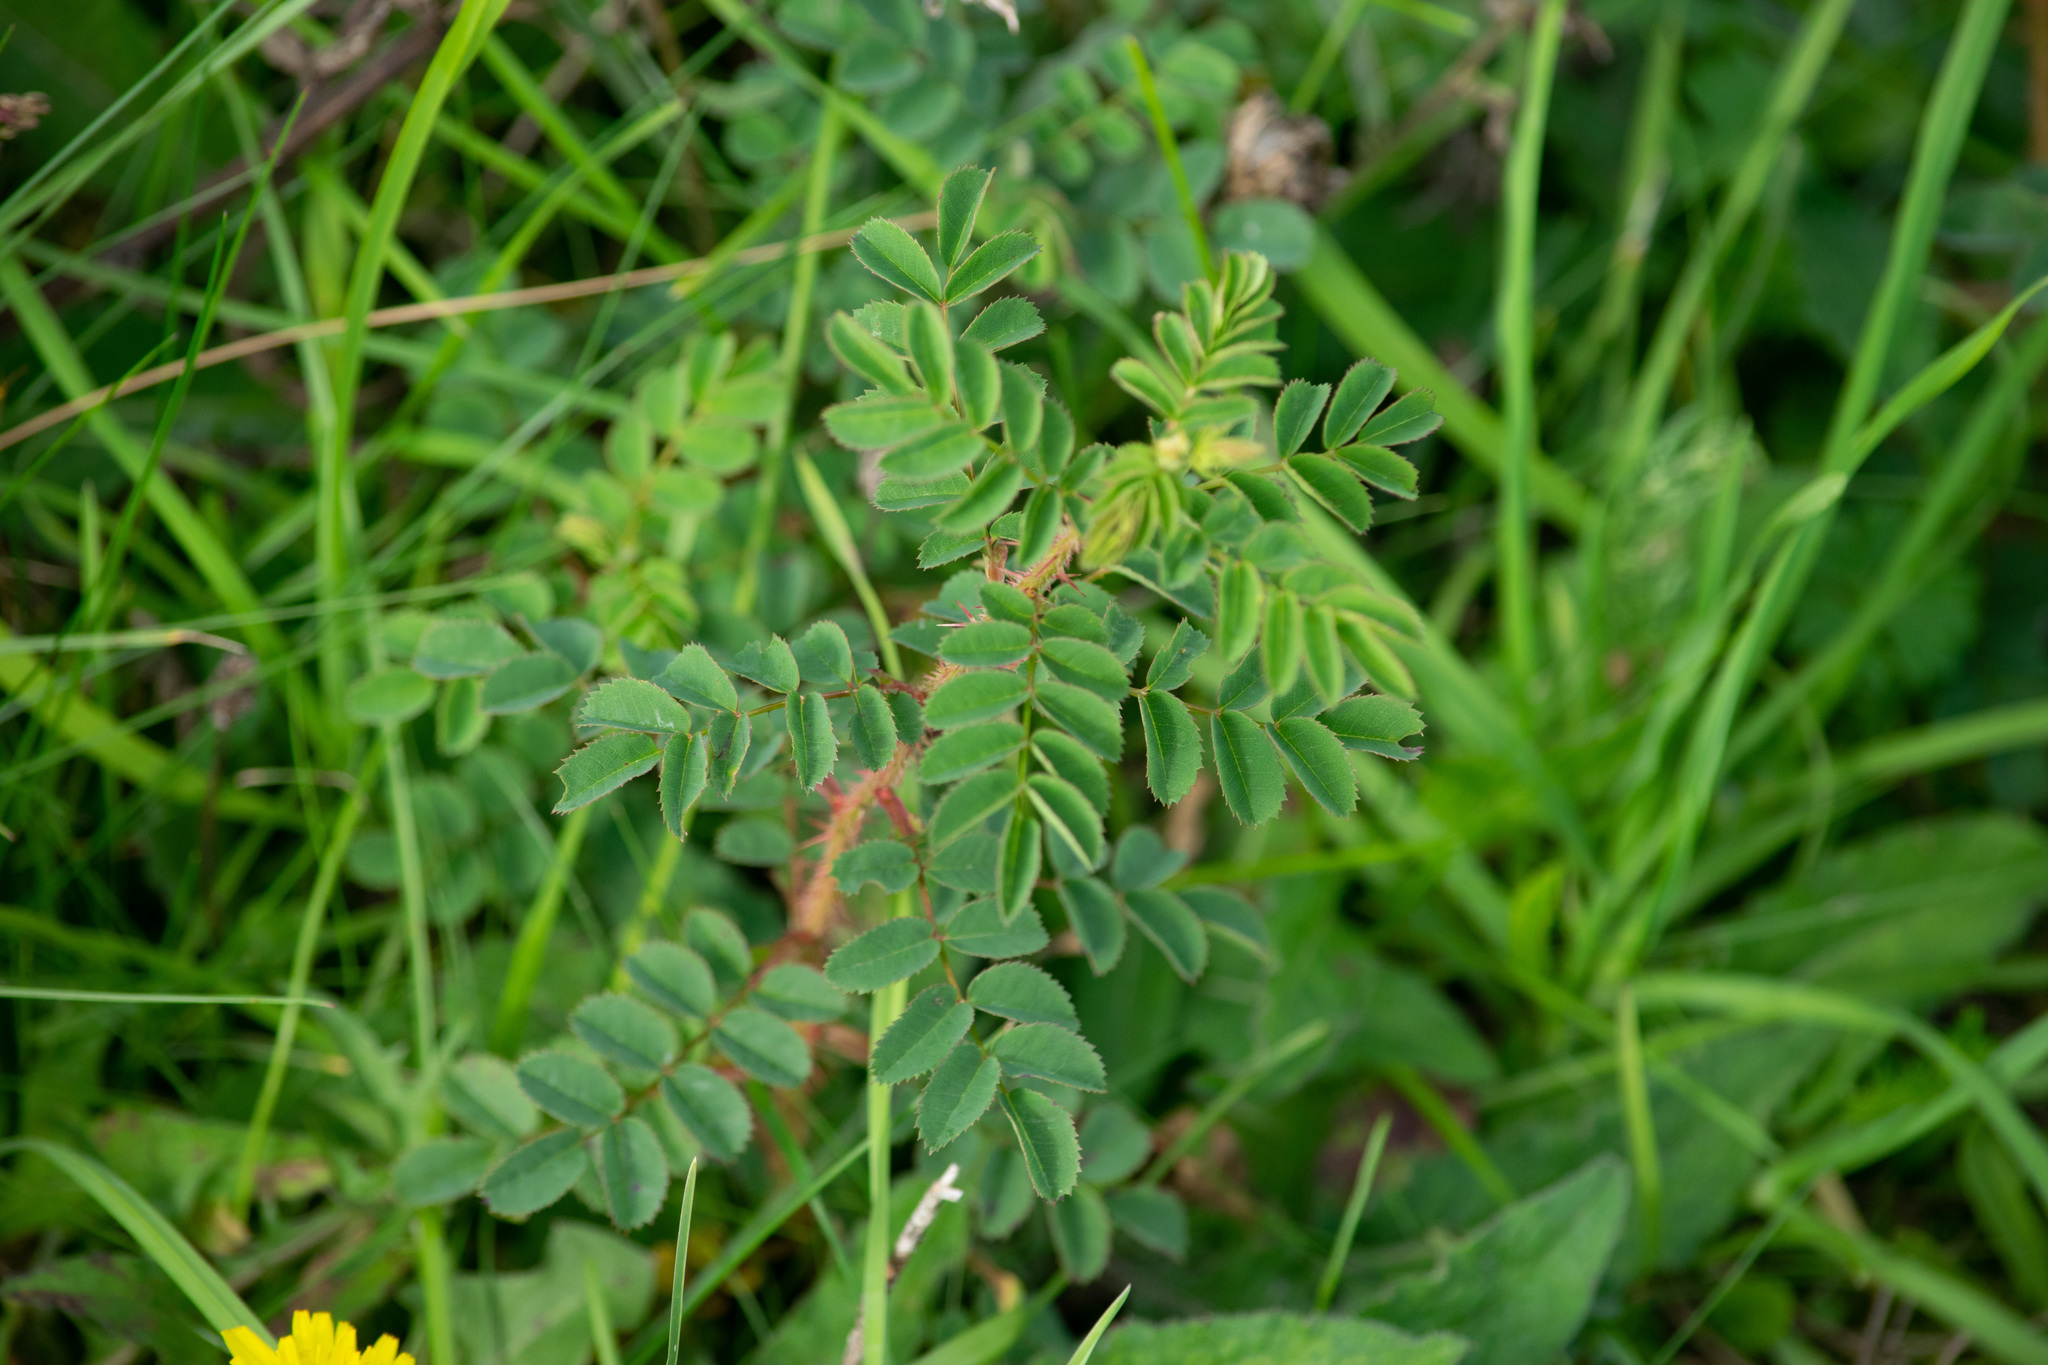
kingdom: Plantae
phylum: Tracheophyta
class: Magnoliopsida
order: Rosales
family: Rosaceae
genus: Rosa
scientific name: Rosa spinosissima
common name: Burnet rose
